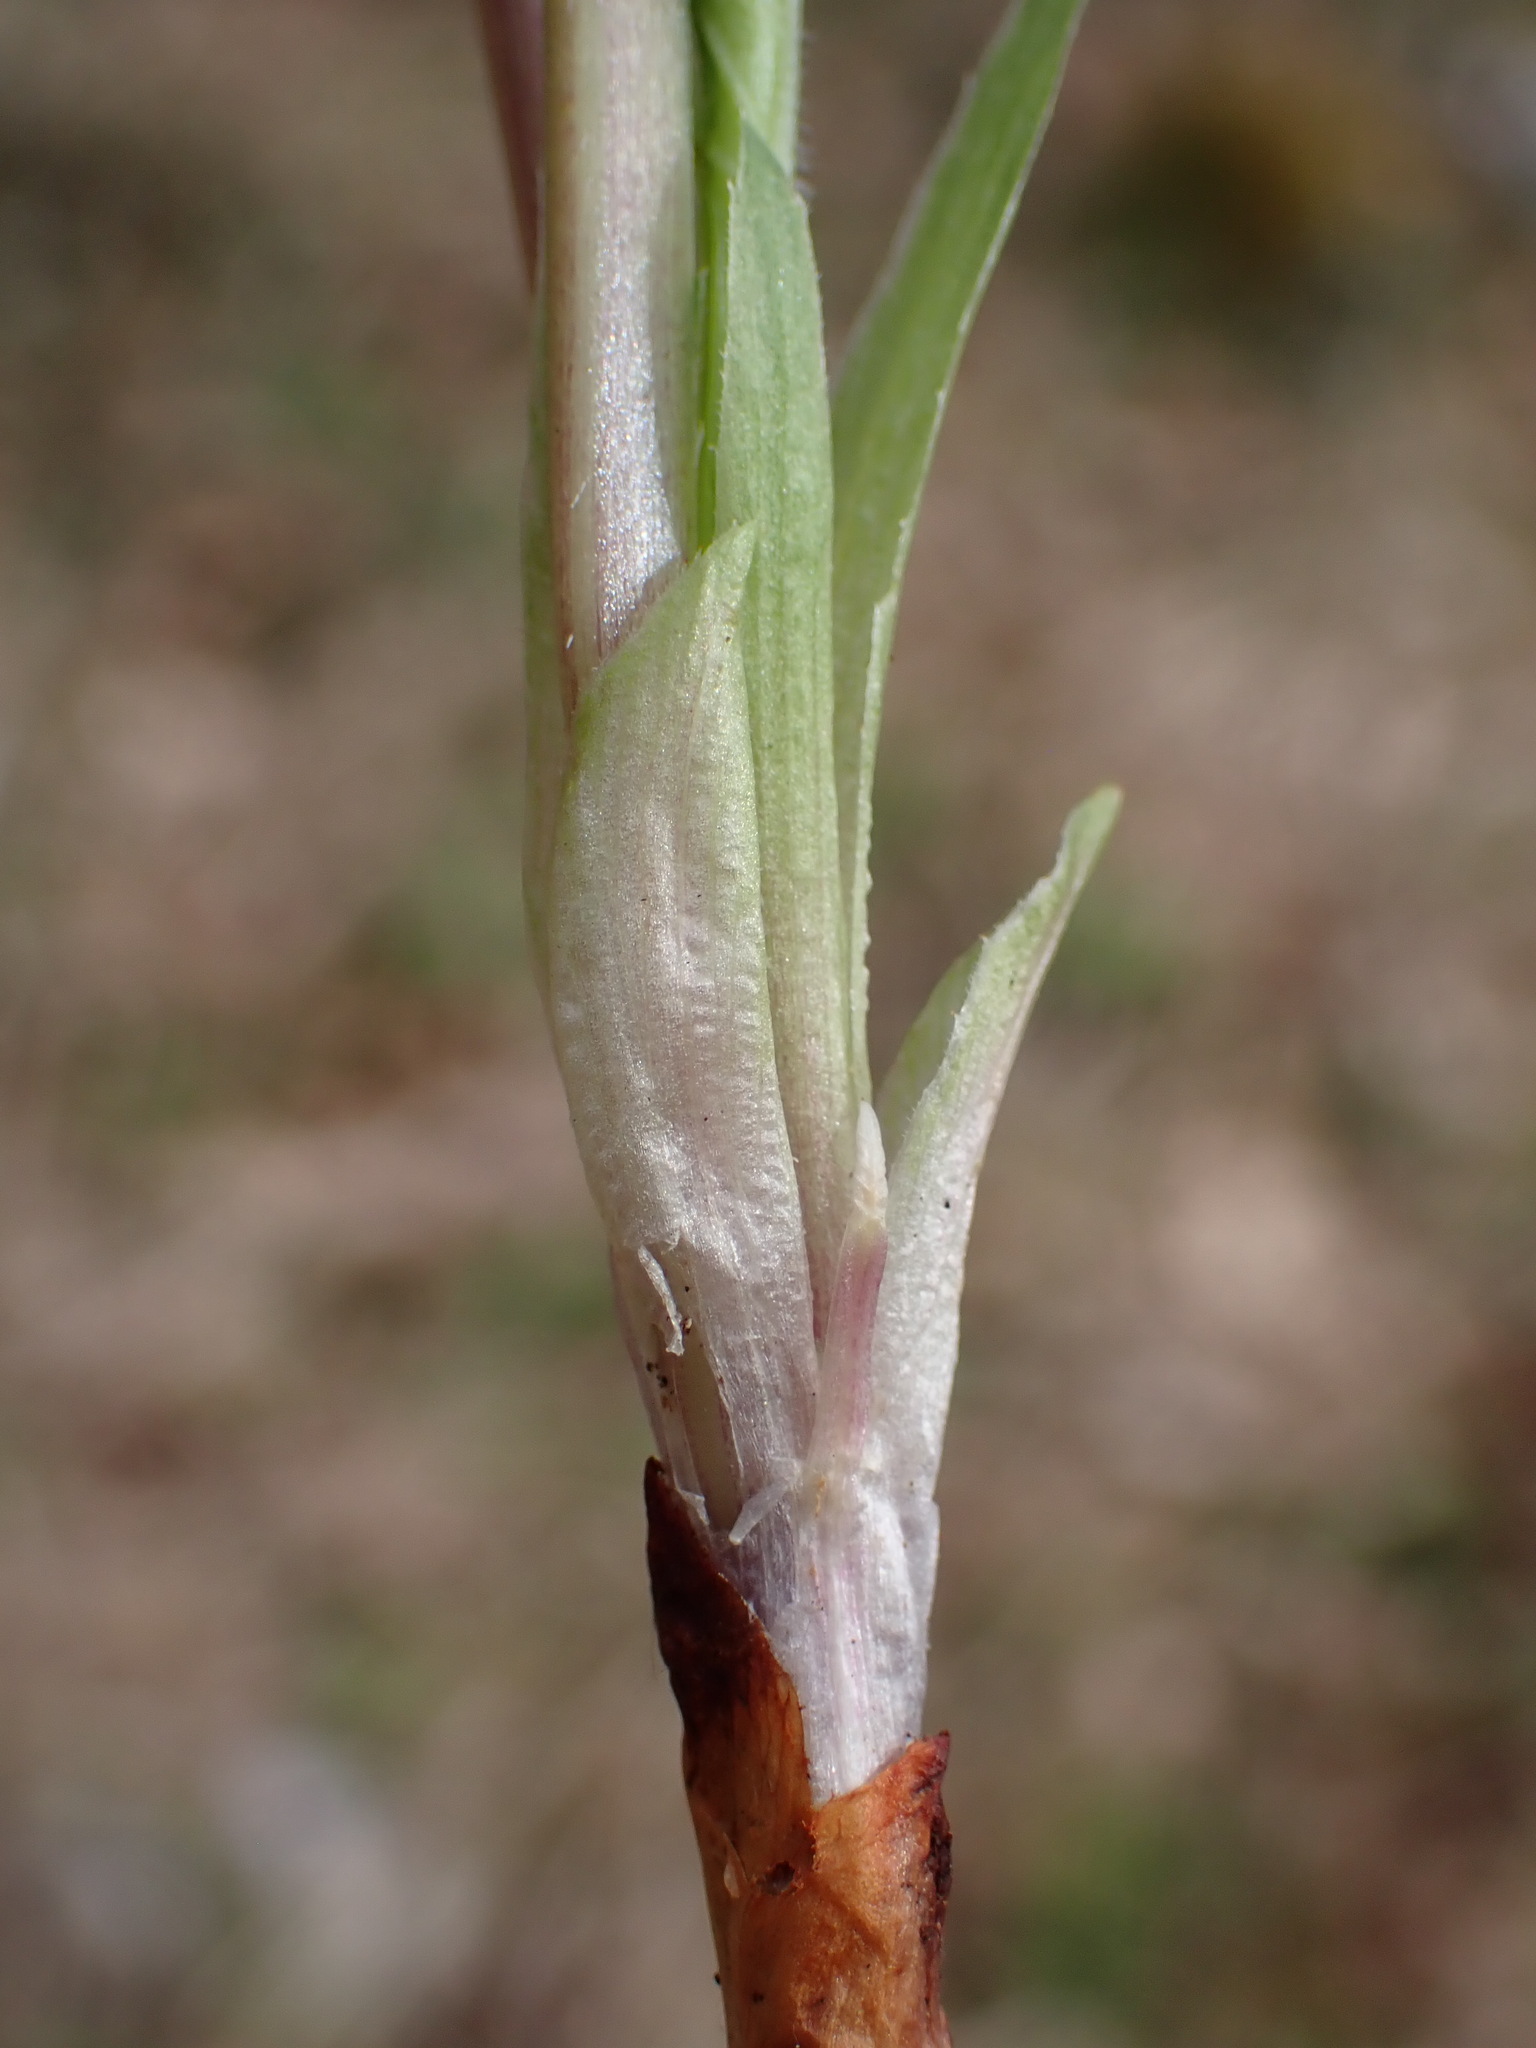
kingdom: Plantae
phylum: Tracheophyta
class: Magnoliopsida
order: Malpighiales
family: Violaceae
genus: Viola
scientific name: Viola mirabilis
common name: Wonder violet
